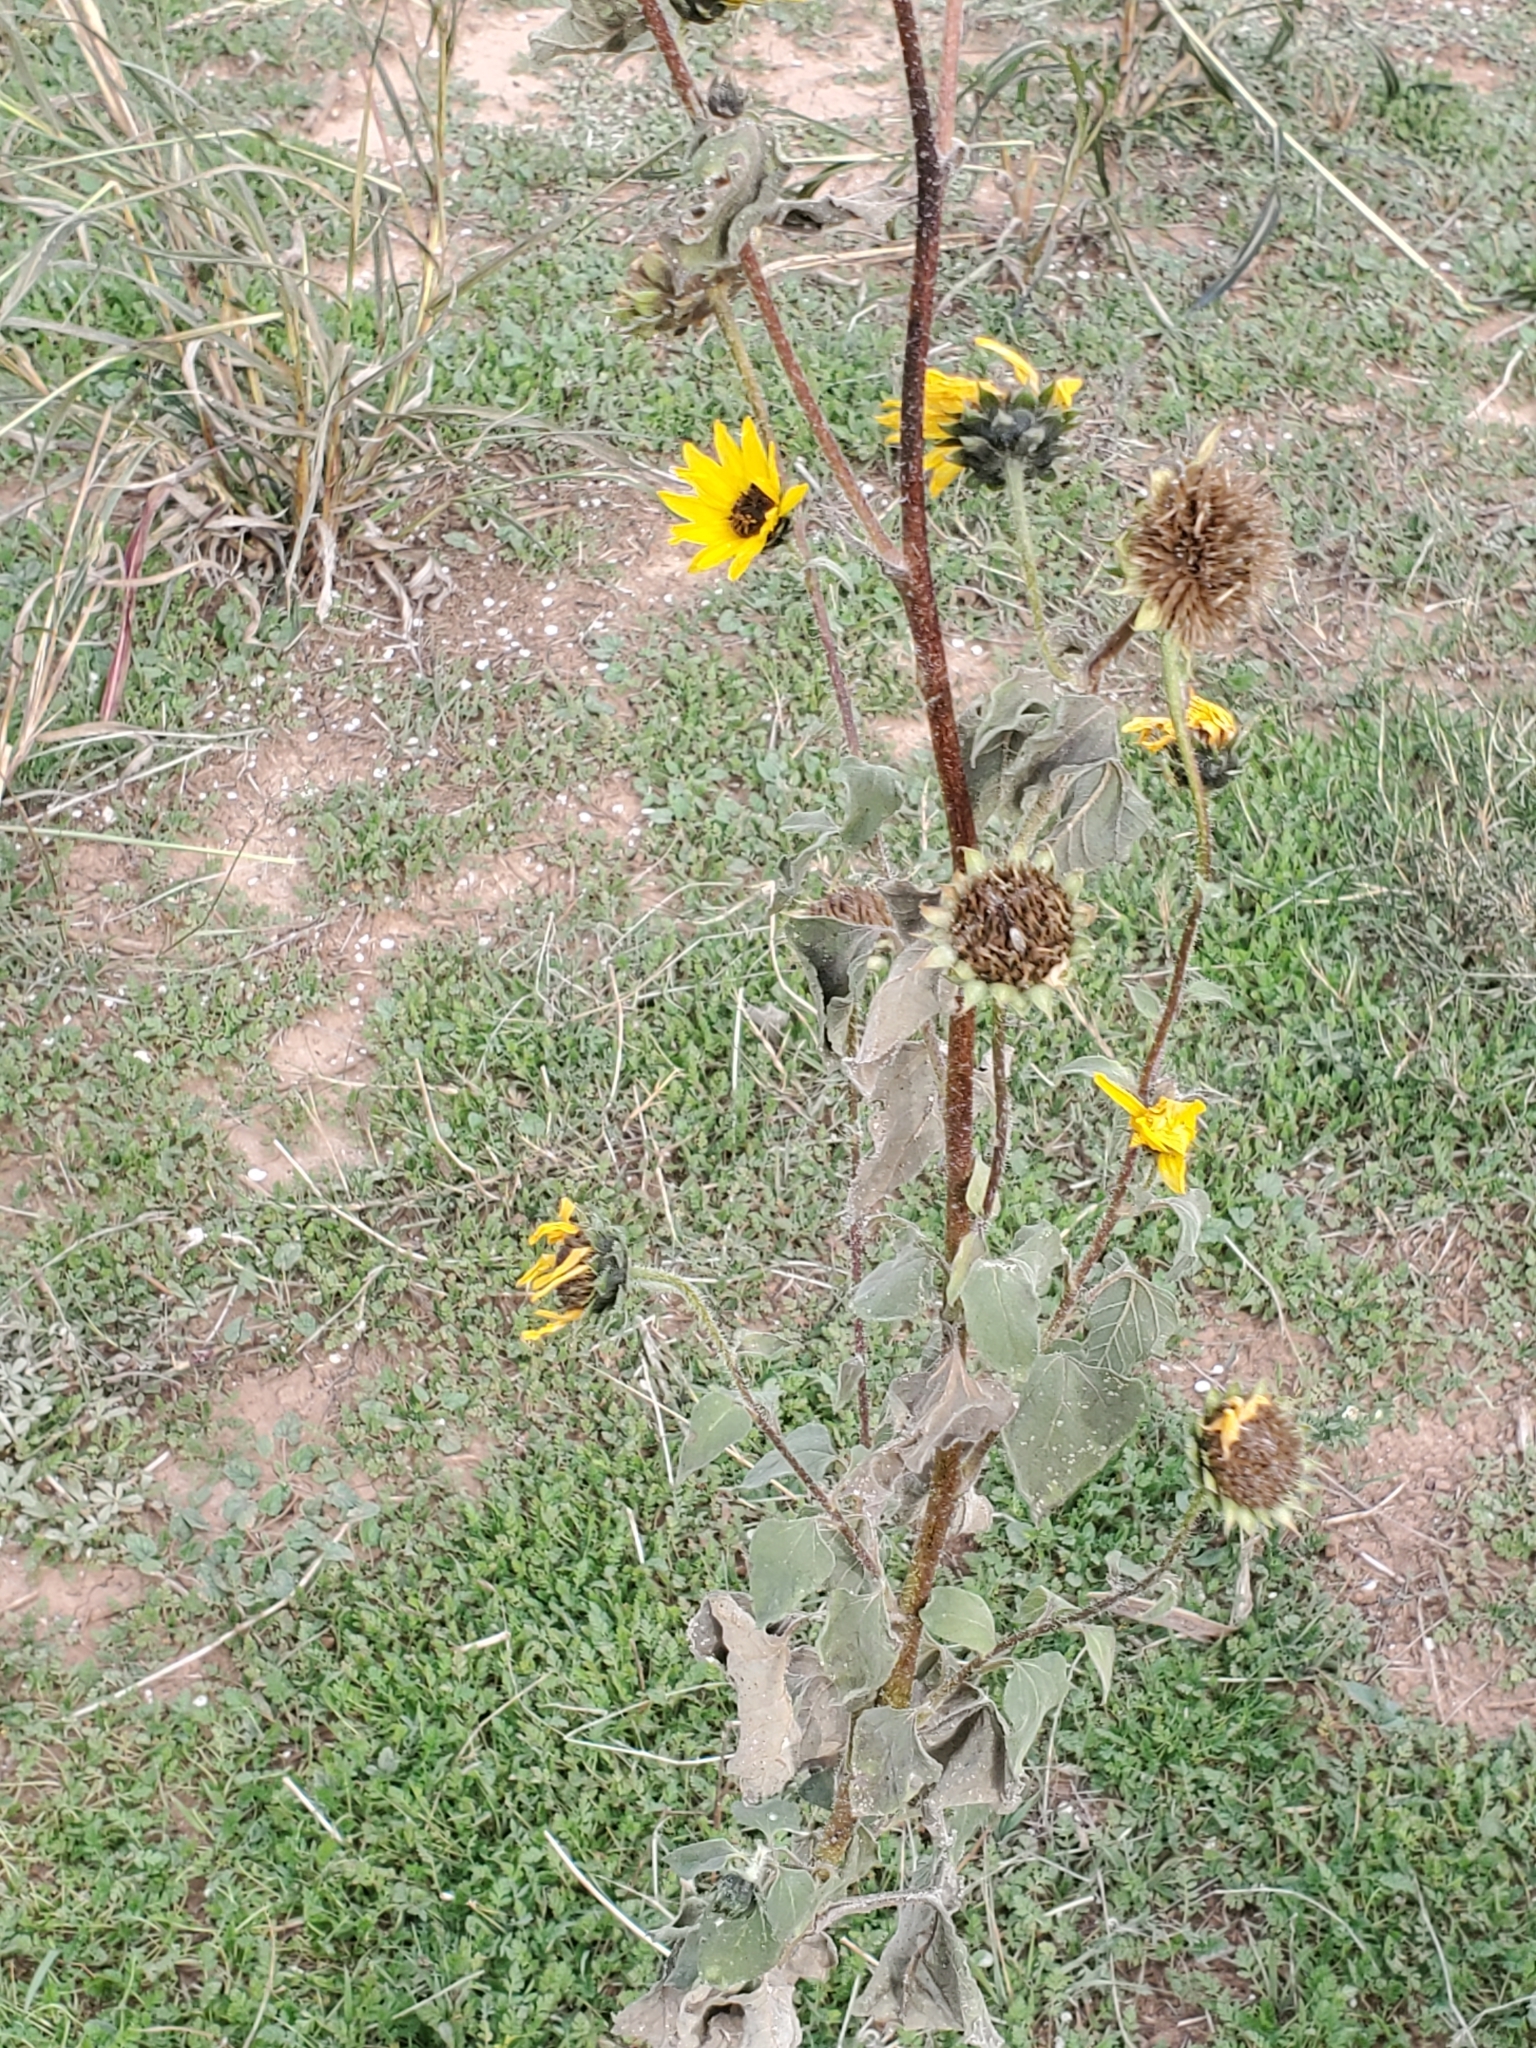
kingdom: Plantae
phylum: Tracheophyta
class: Magnoliopsida
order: Asterales
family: Asteraceae
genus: Helianthus
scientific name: Helianthus annuus
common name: Sunflower
